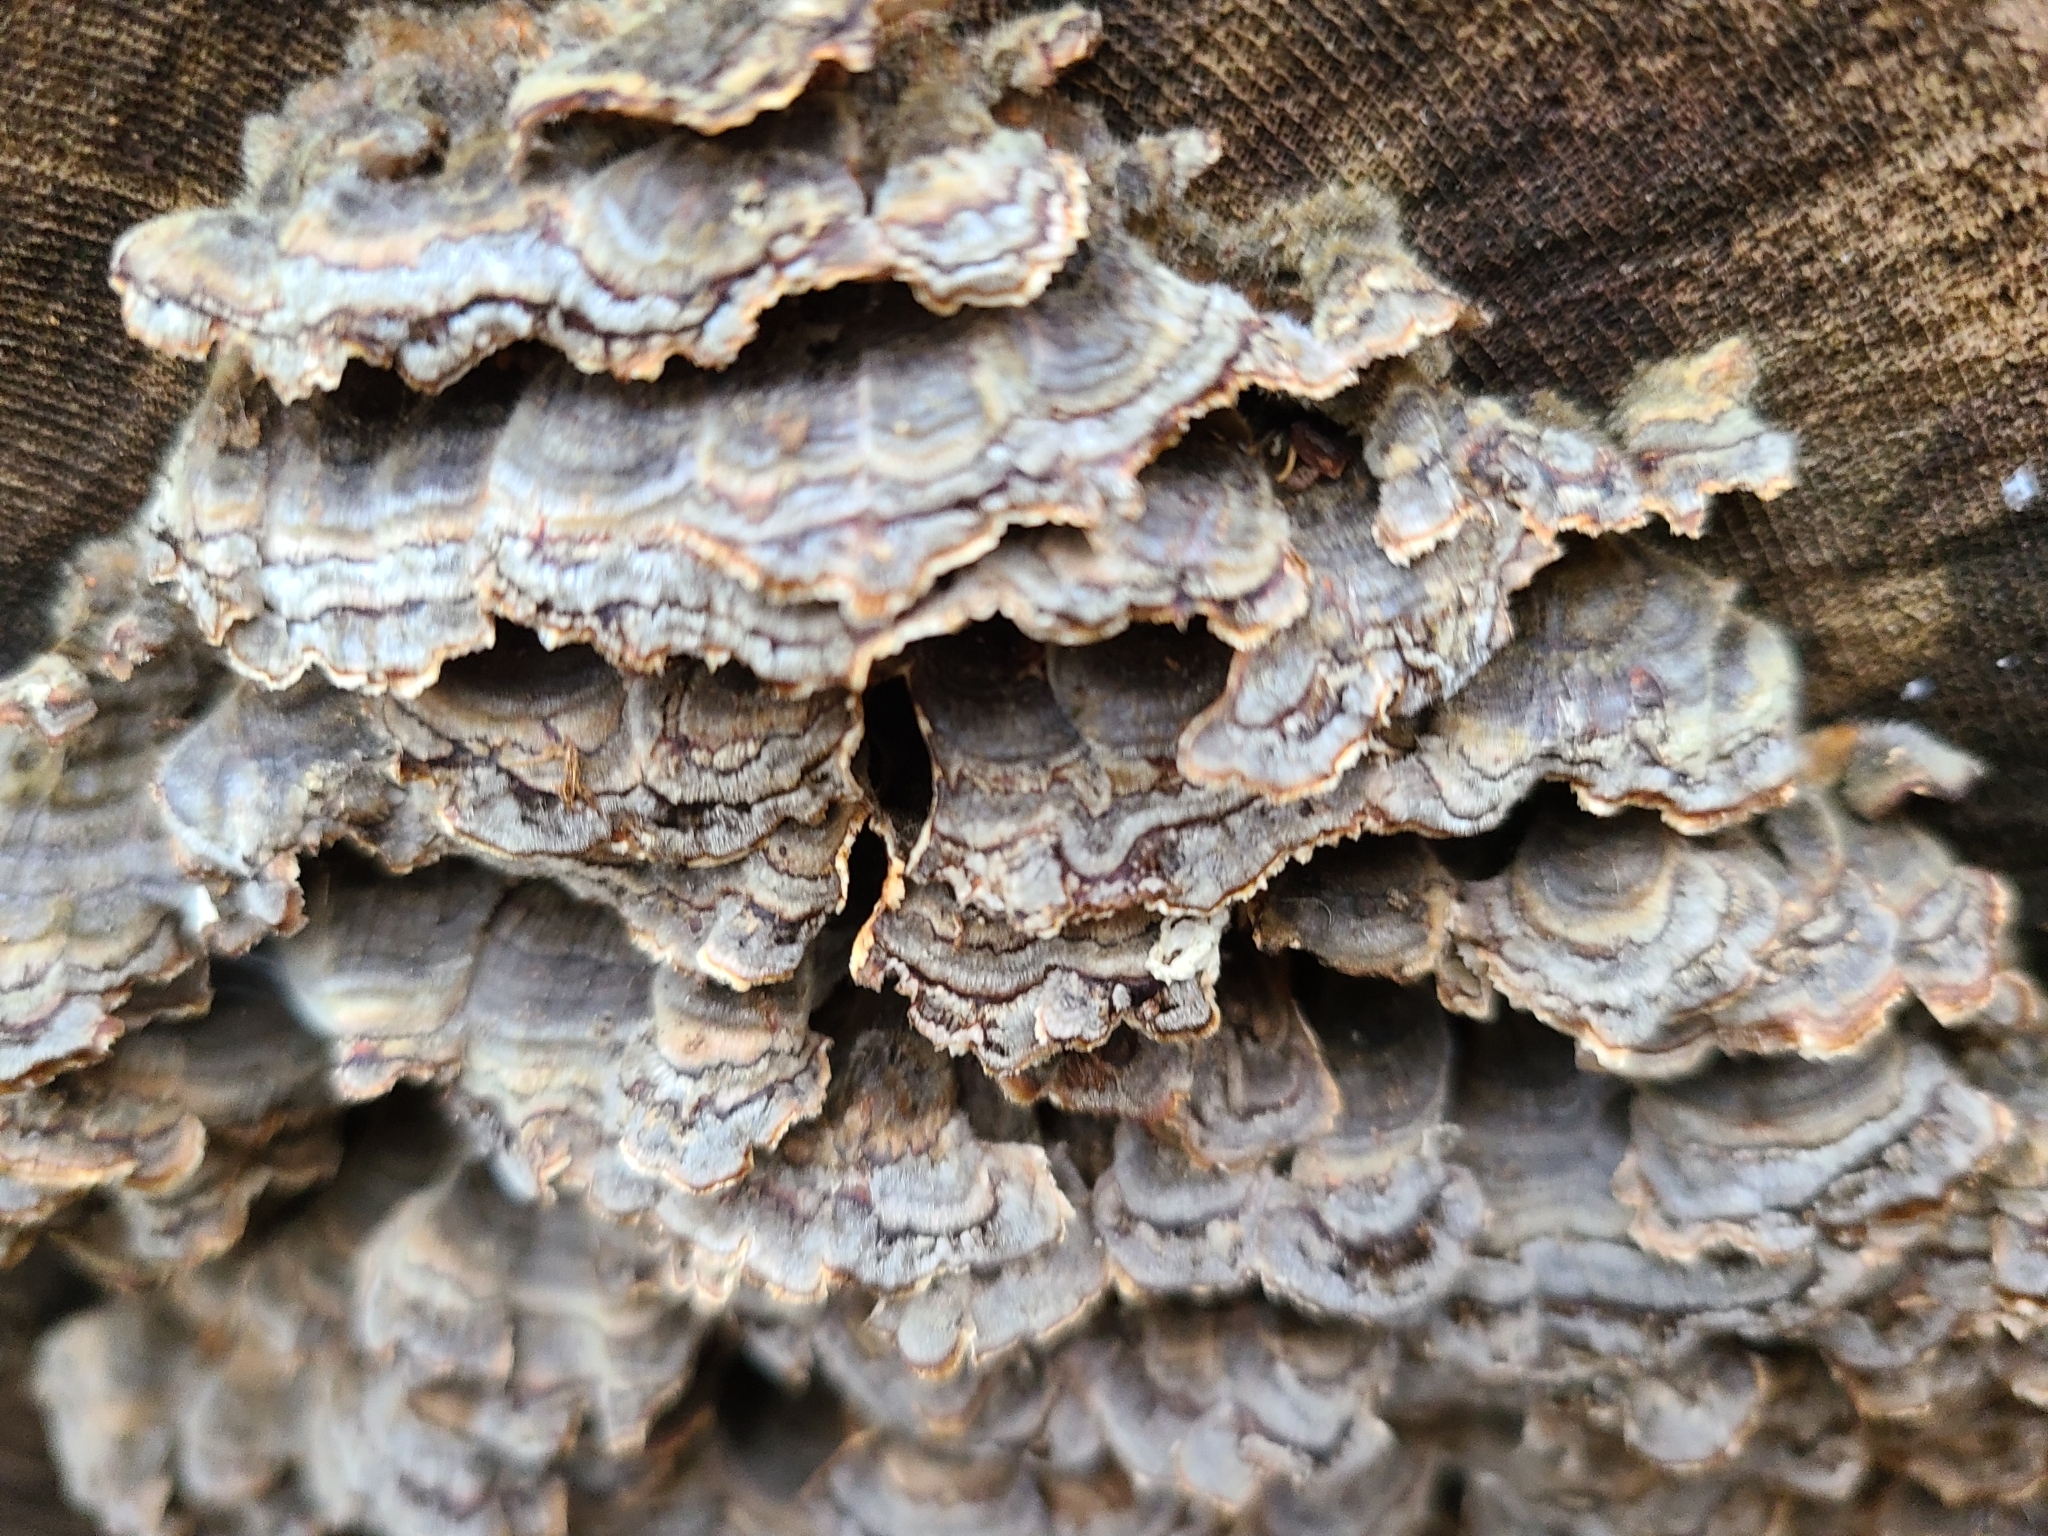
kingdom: Fungi
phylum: Basidiomycota
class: Agaricomycetes
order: Polyporales
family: Polyporaceae
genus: Trametes
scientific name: Trametes versicolor
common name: Turkeytail
